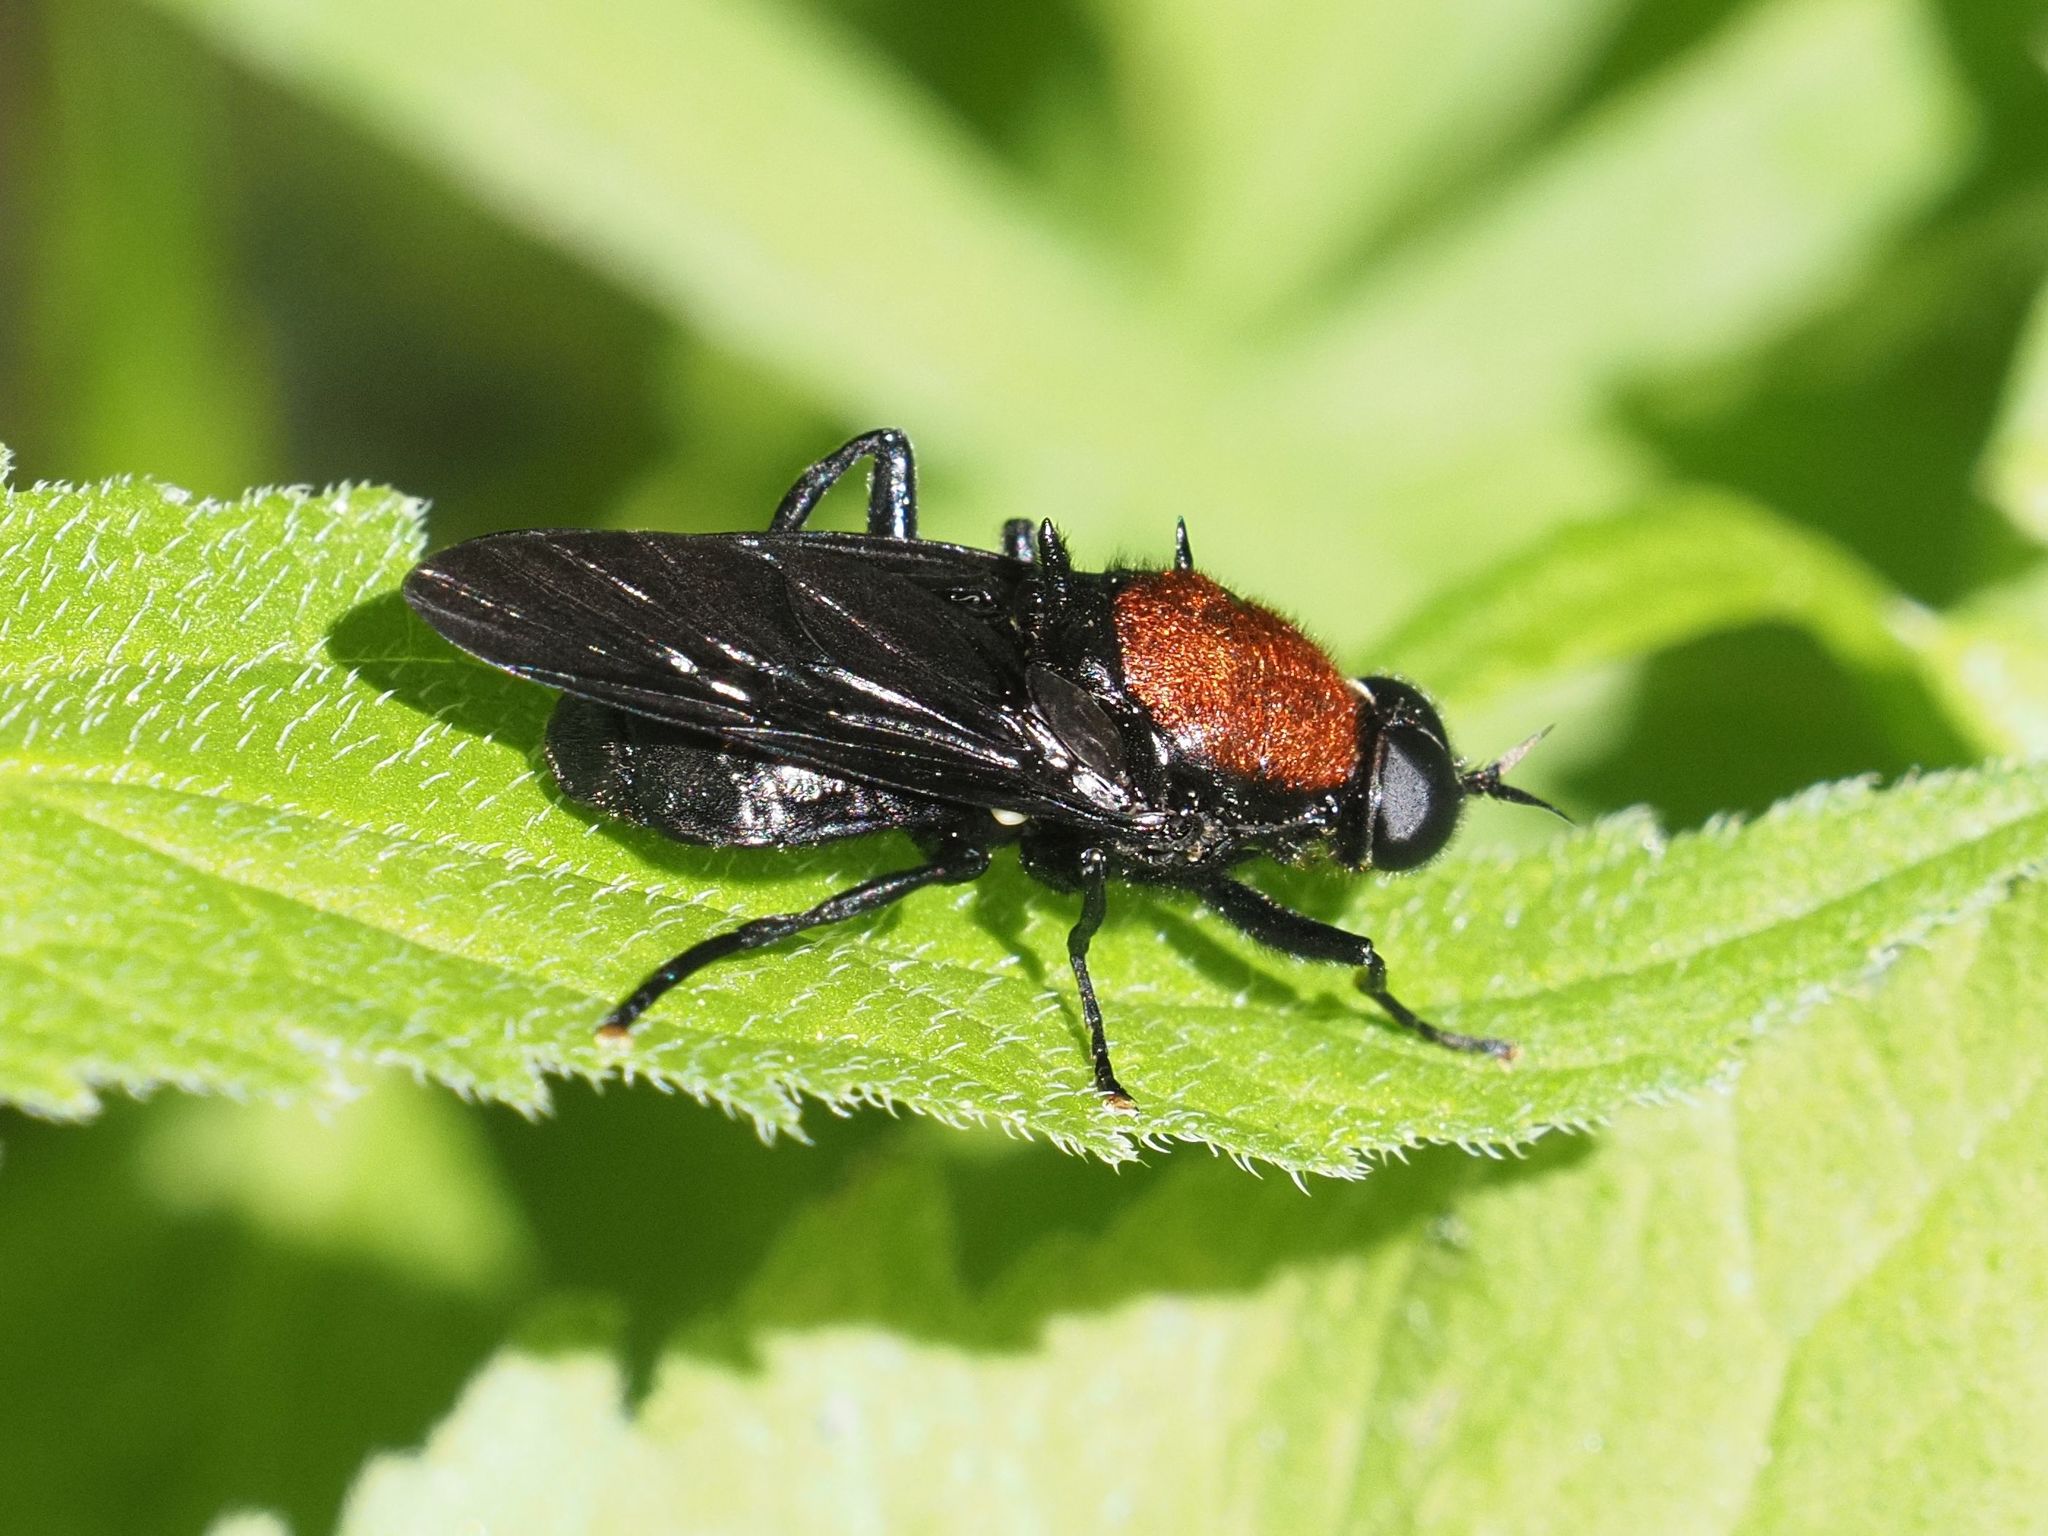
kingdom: Animalia
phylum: Arthropoda
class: Insecta
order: Diptera
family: Stratiomyidae
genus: Clitellaria
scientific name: Clitellaria ephippium
